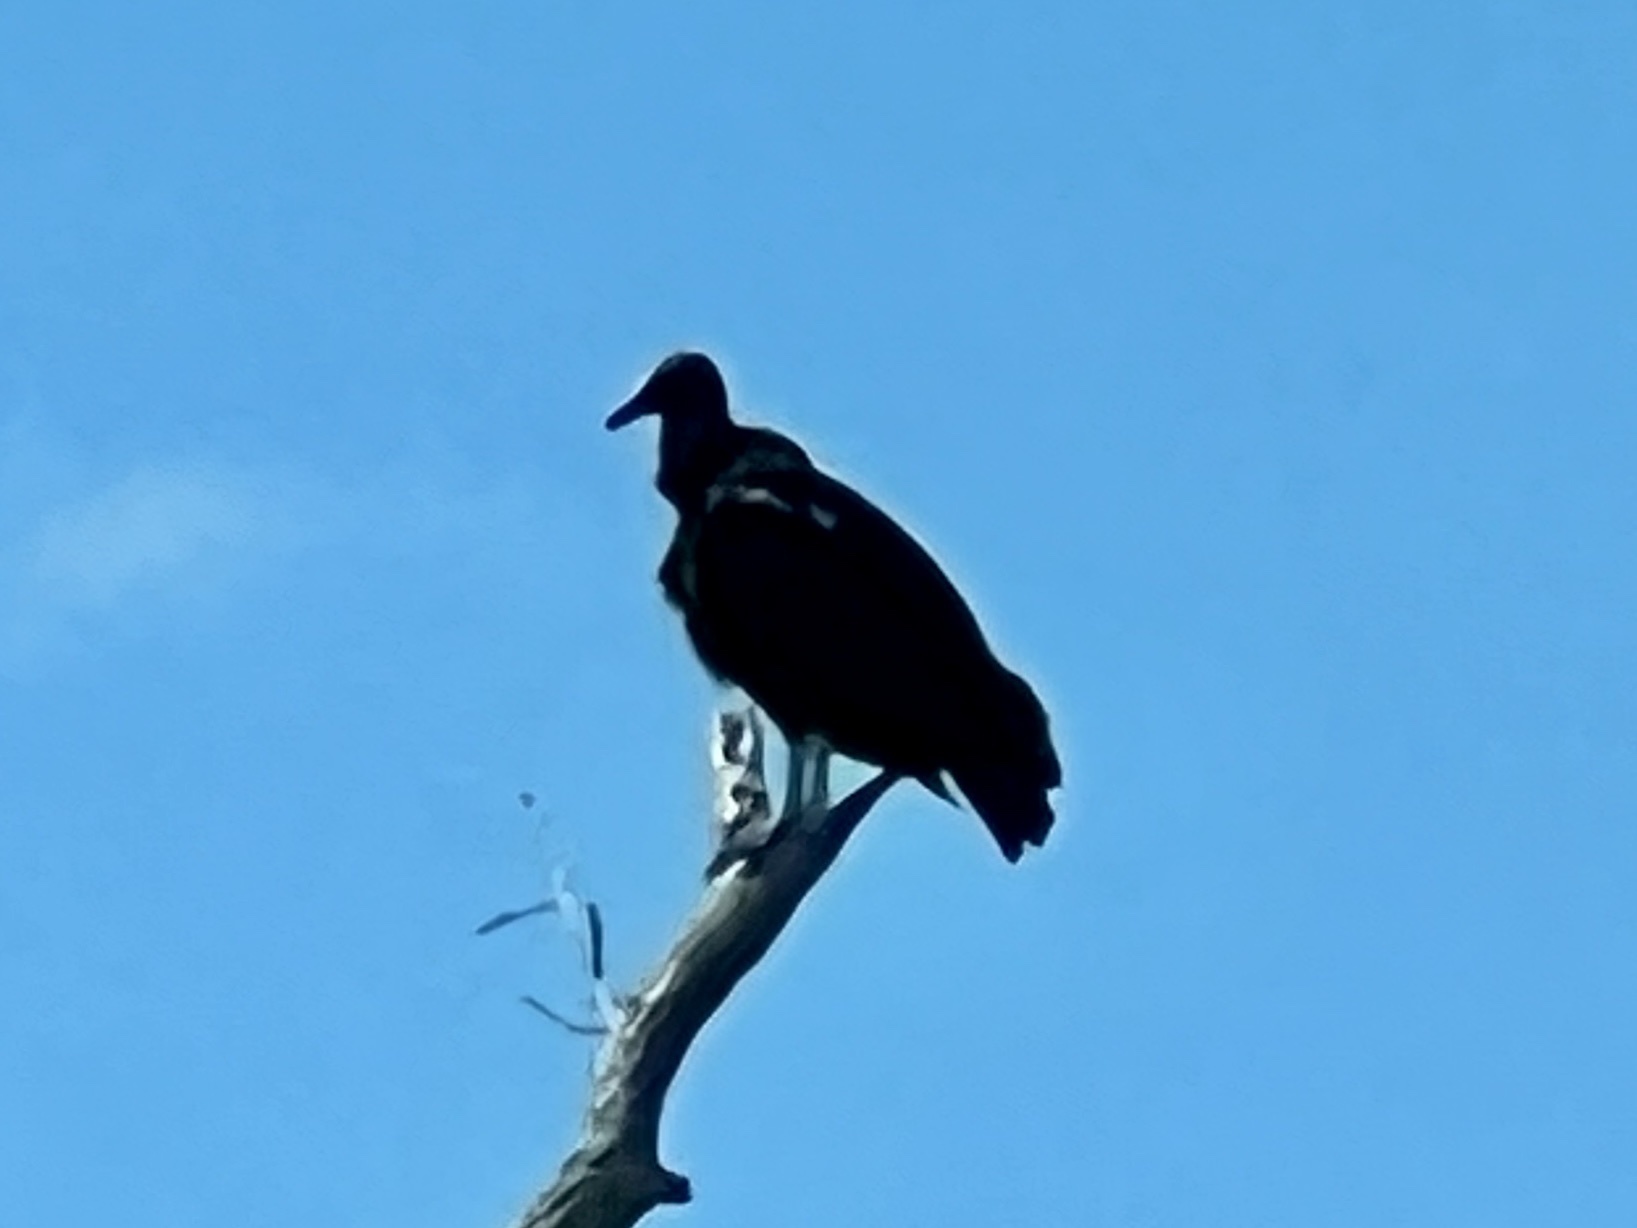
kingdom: Animalia
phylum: Chordata
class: Aves
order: Accipitriformes
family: Cathartidae
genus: Coragyps
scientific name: Coragyps atratus
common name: Black vulture
